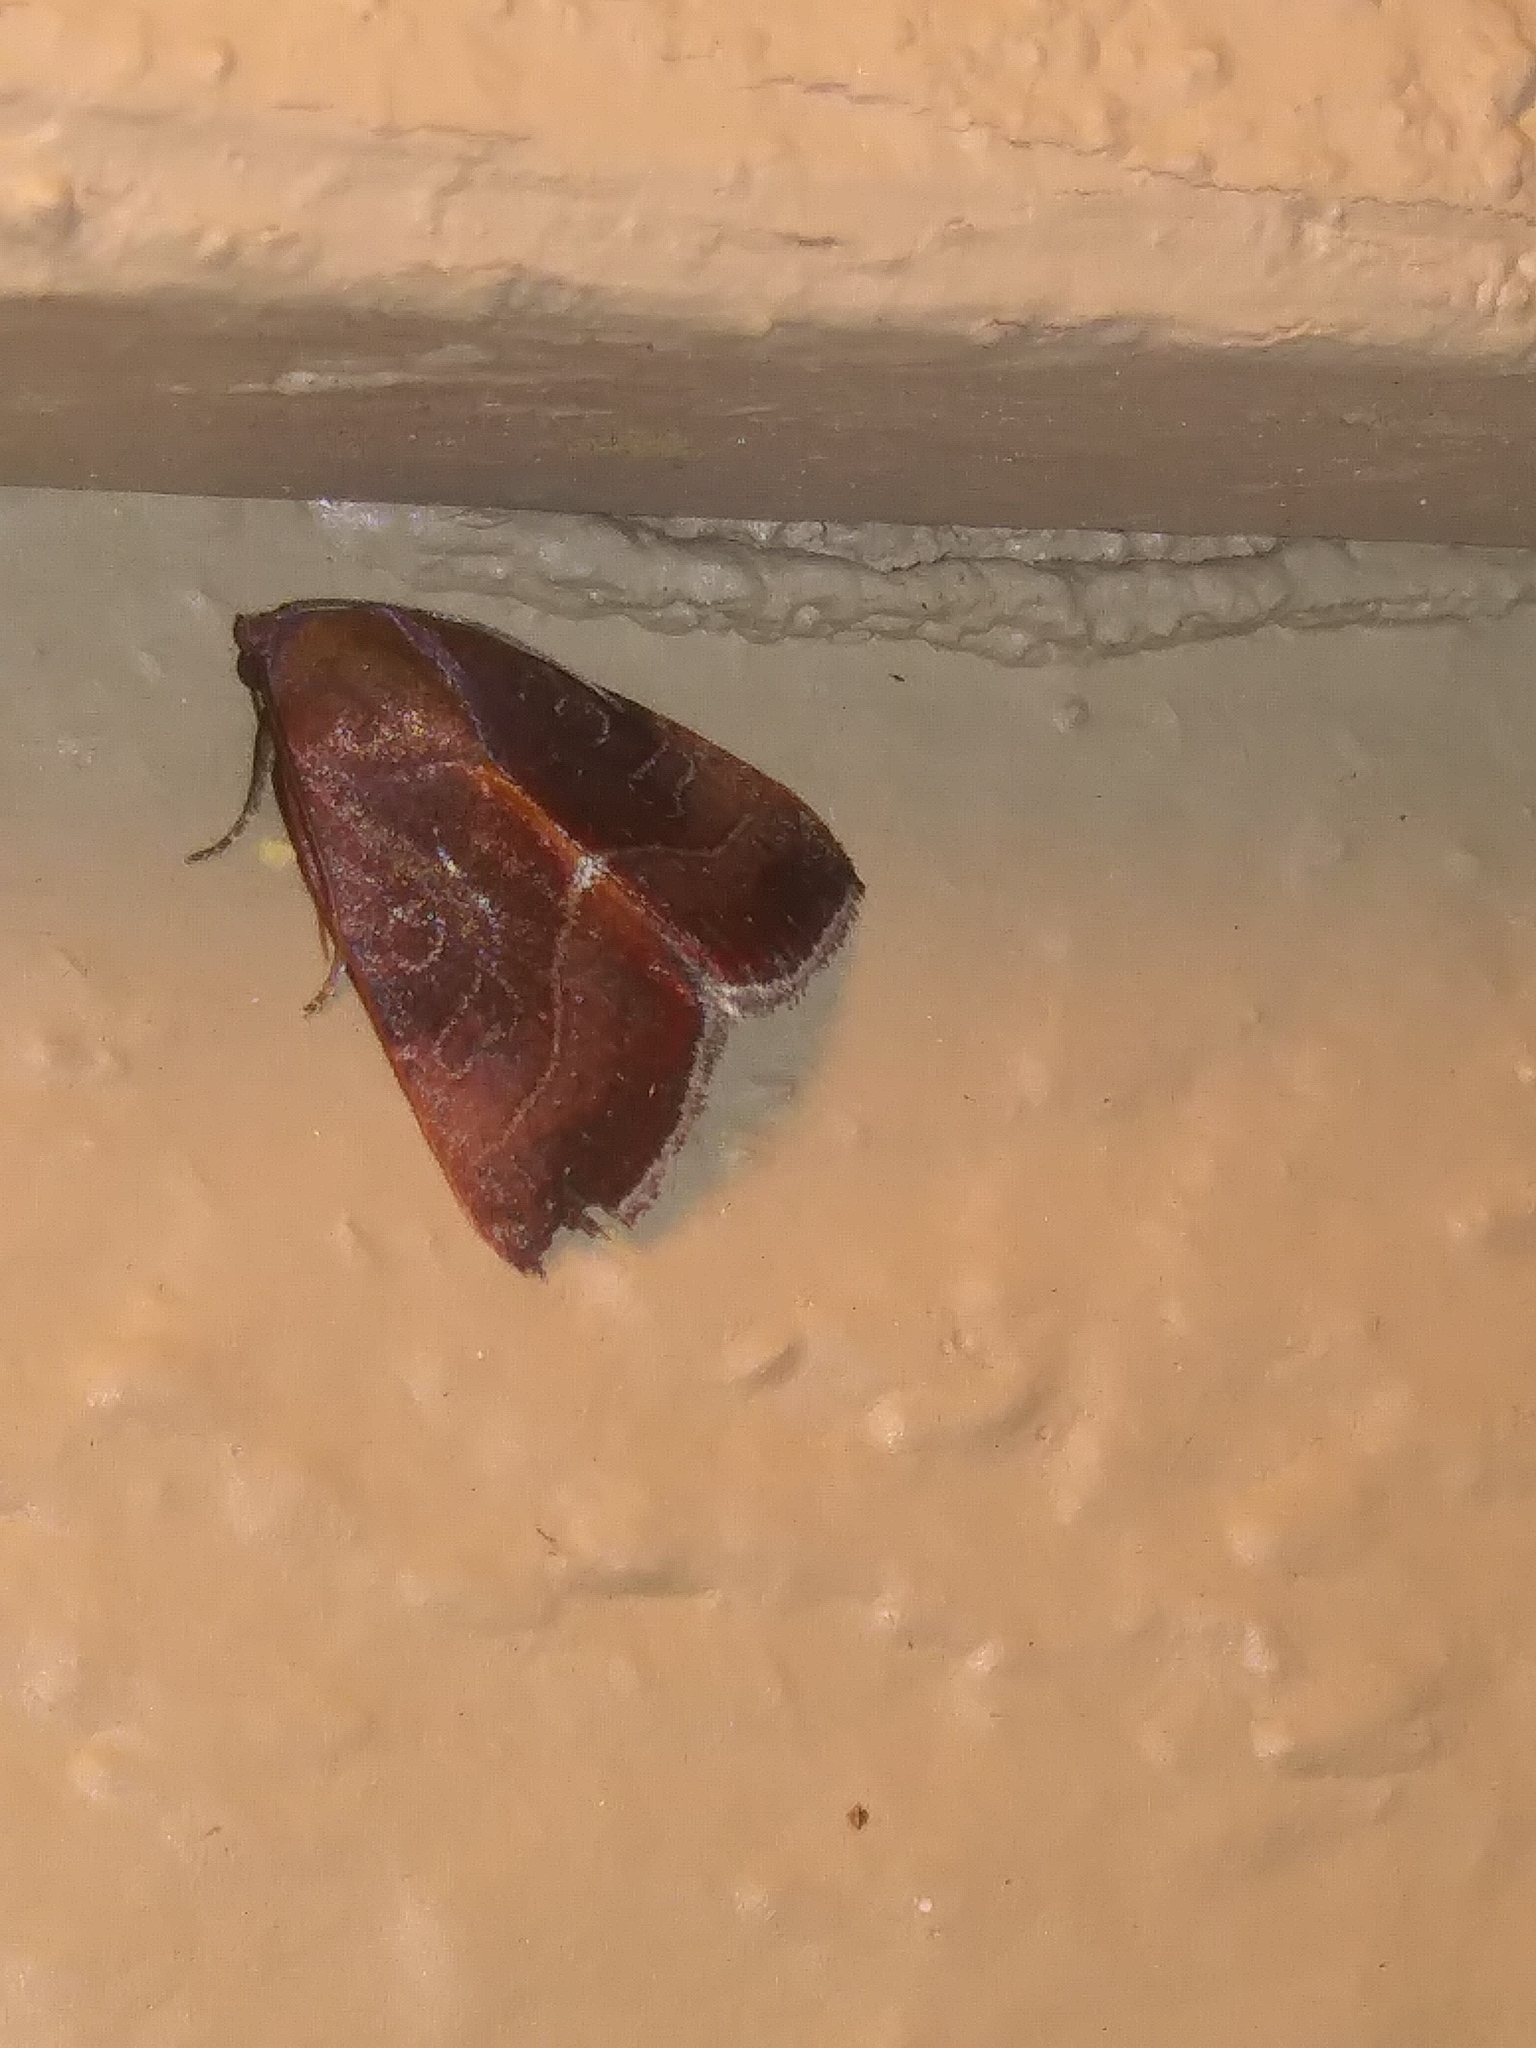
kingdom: Animalia
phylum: Arthropoda
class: Insecta
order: Lepidoptera
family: Noctuidae
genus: Galgula
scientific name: Galgula partita
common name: Wedgeling
